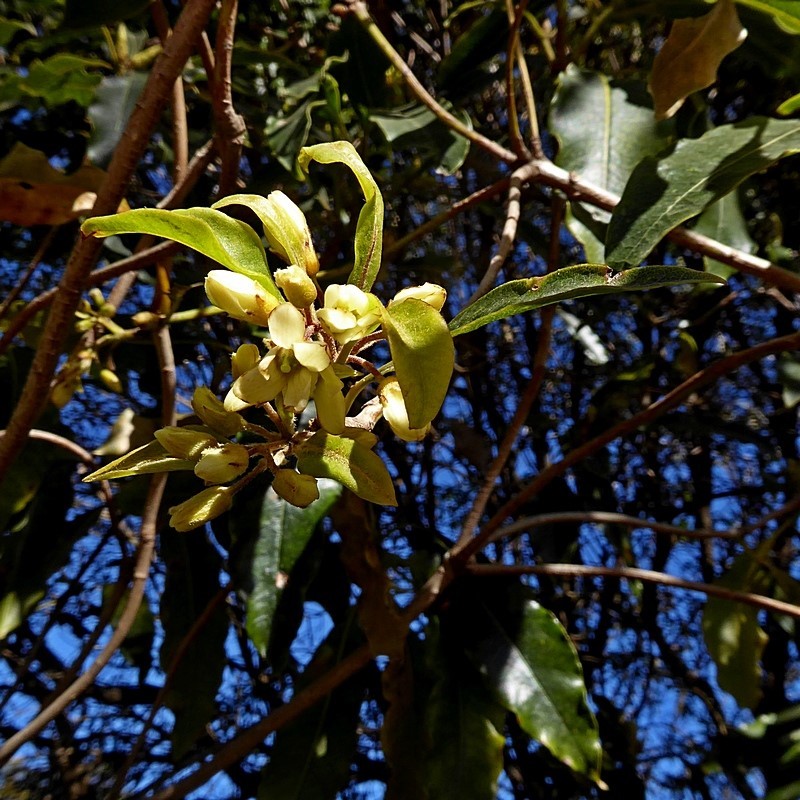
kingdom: Plantae
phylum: Tracheophyta
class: Magnoliopsida
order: Apiales
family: Pittosporaceae
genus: Pittosporum
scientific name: Pittosporum undulatum
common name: Australian cheesewood
